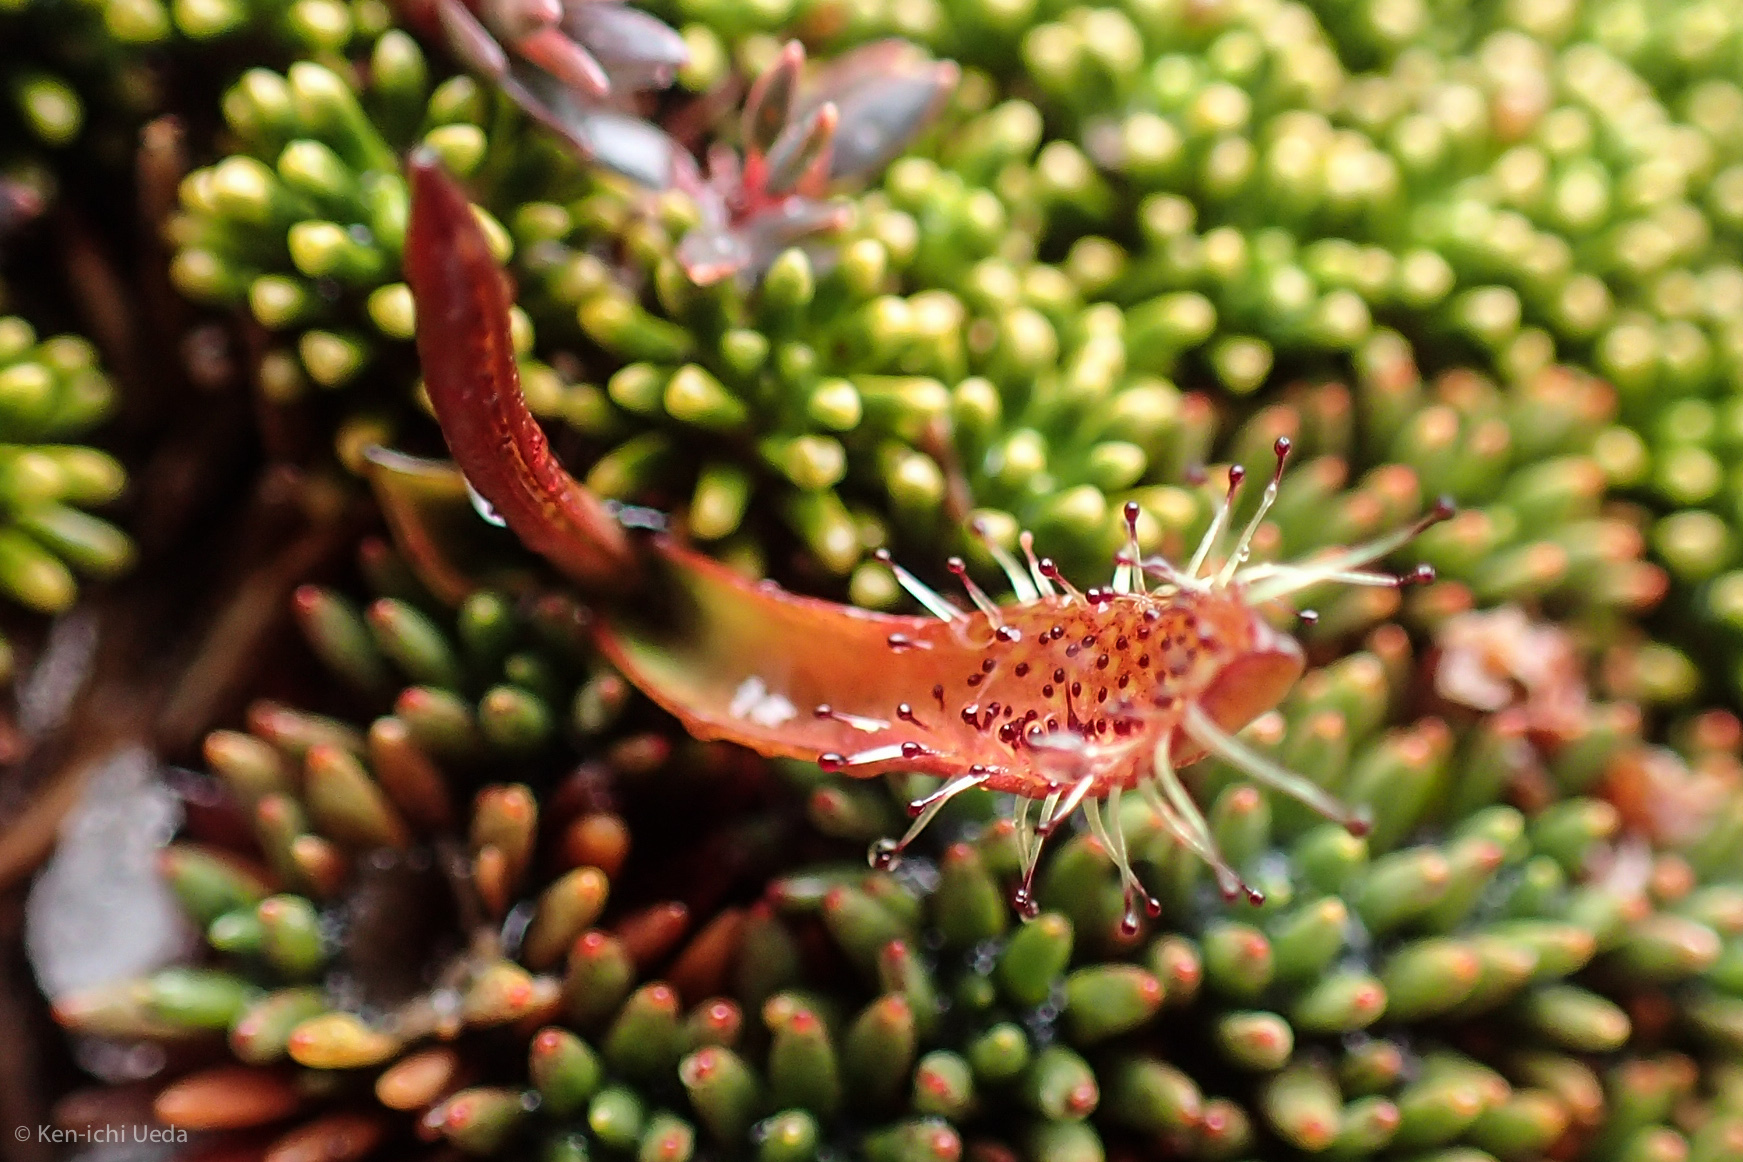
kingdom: Plantae
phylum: Tracheophyta
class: Magnoliopsida
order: Caryophyllales
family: Droseraceae
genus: Drosera
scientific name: Drosera arcturi
